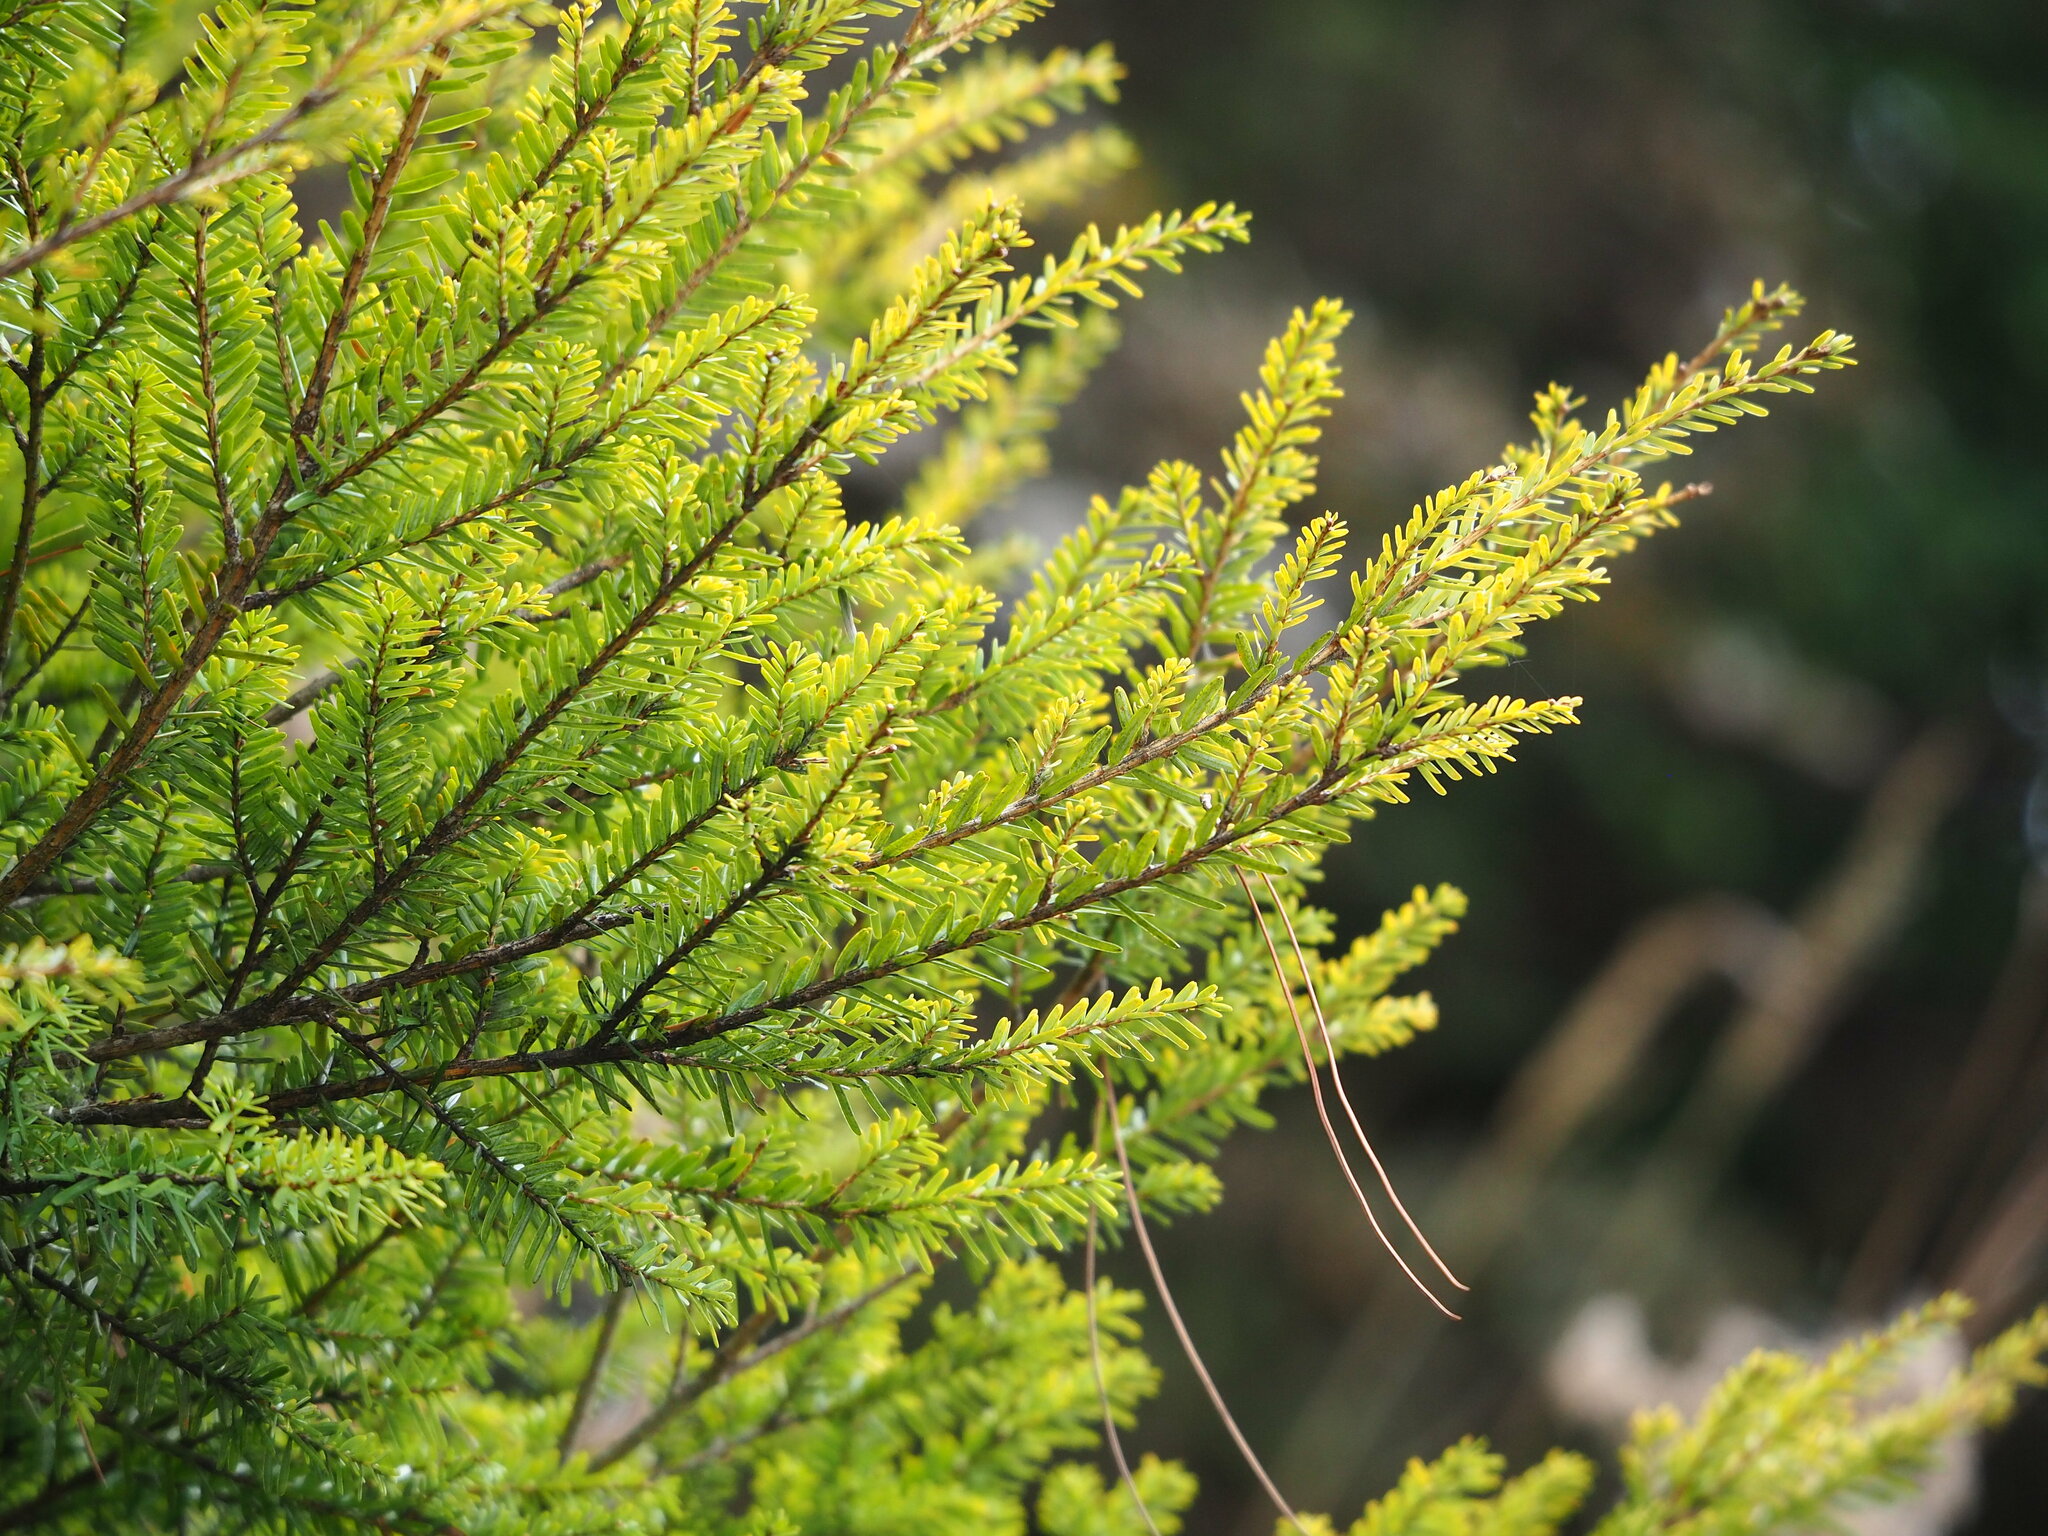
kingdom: Plantae
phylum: Tracheophyta
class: Pinopsida
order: Pinales
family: Pinaceae
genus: Tsuga
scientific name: Tsuga chinensis
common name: Chinese hemlock
